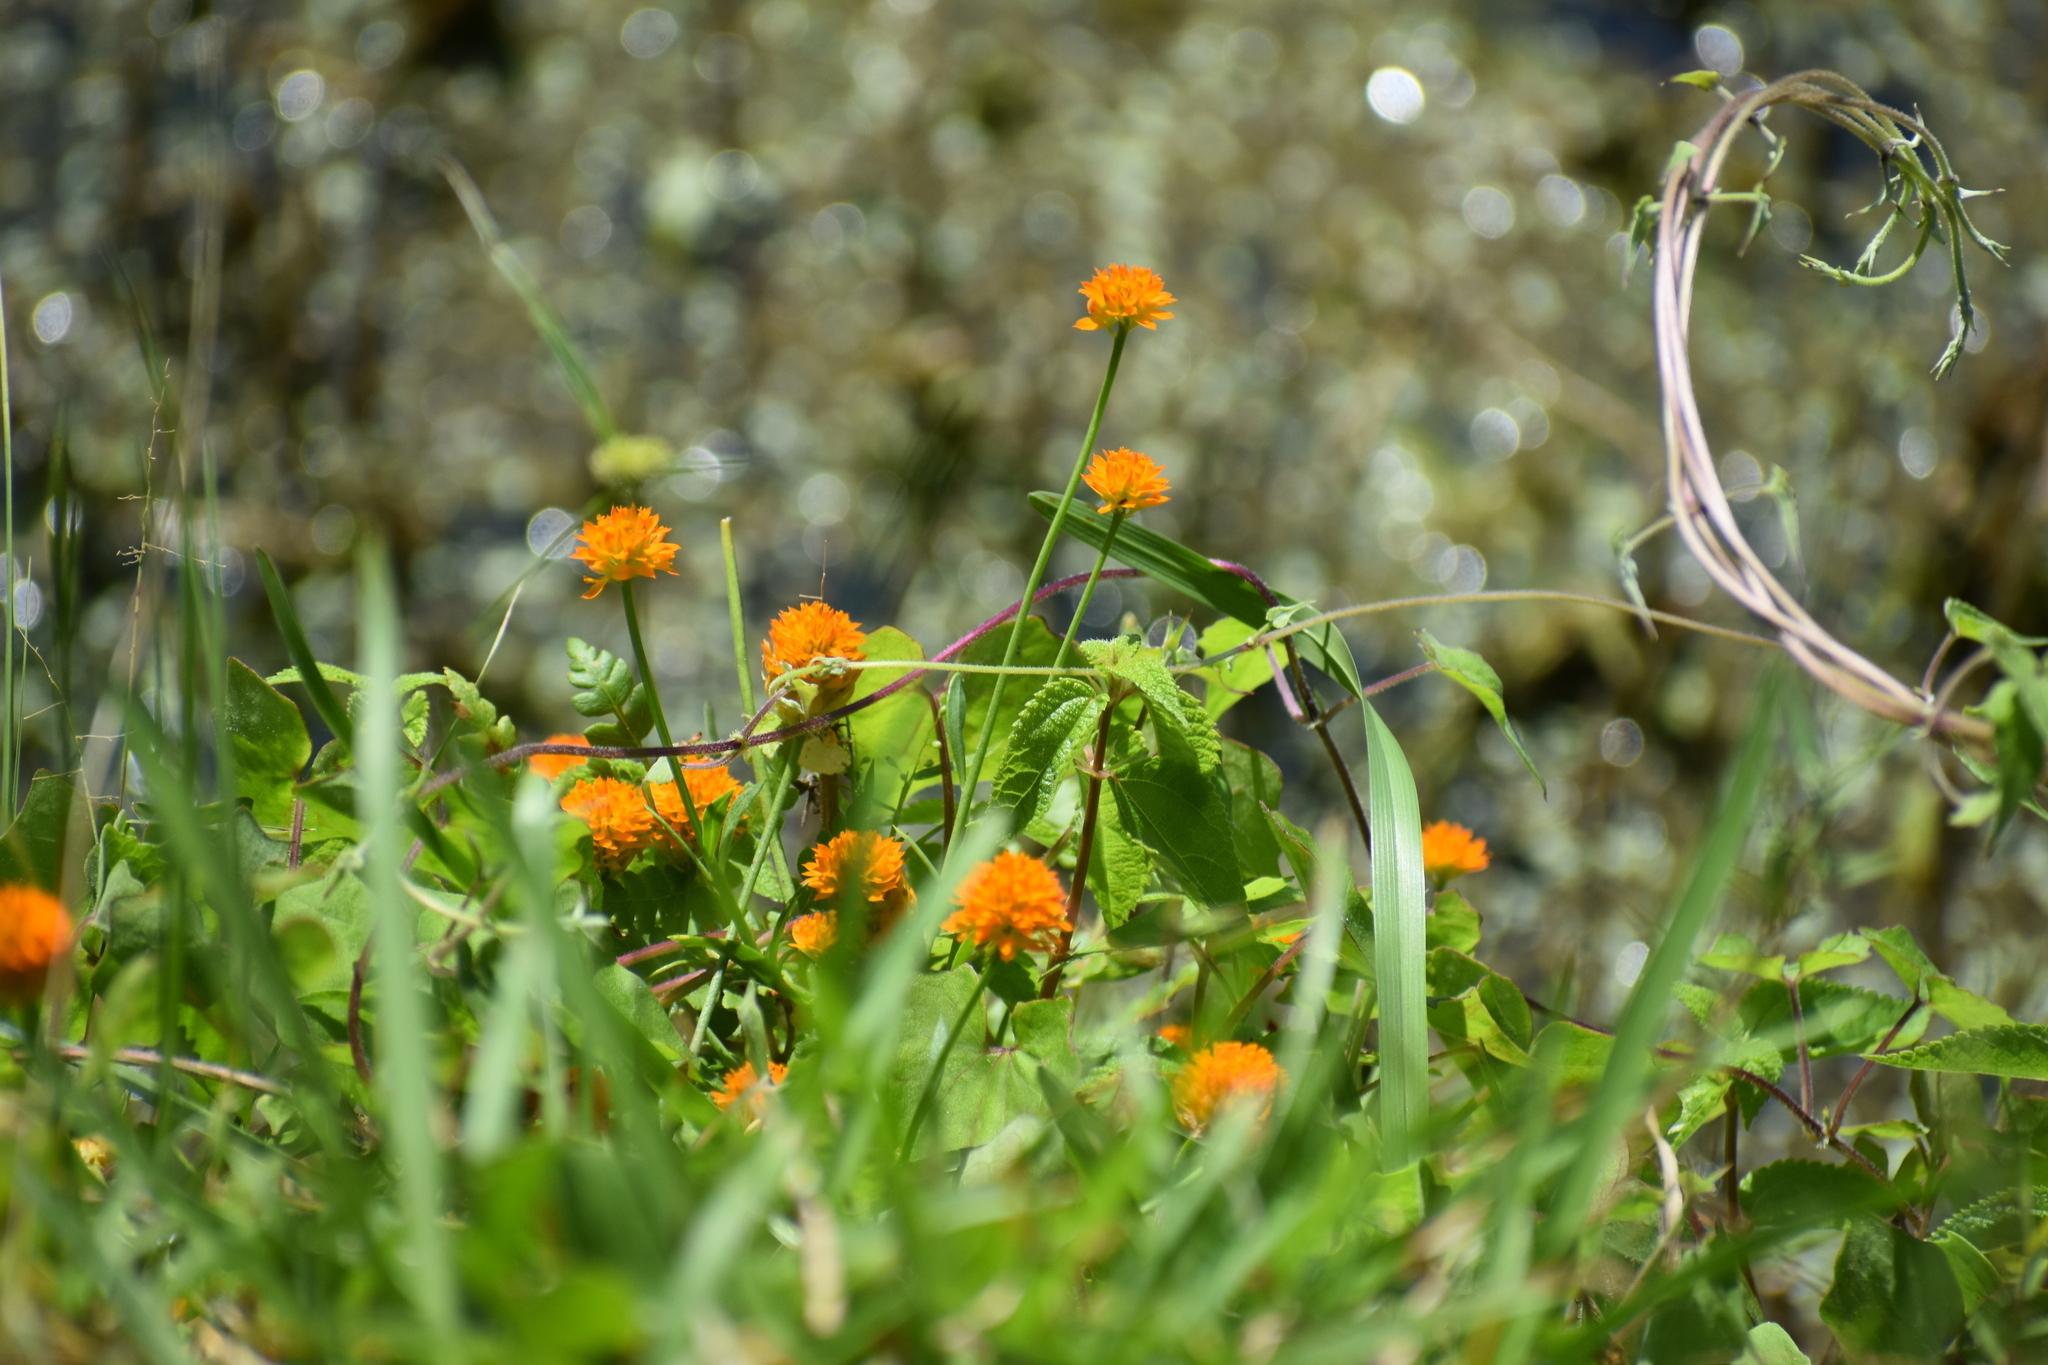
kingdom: Plantae
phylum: Tracheophyta
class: Magnoliopsida
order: Fabales
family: Polygalaceae
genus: Polygala
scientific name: Polygala lutea
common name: Orange milkwort
